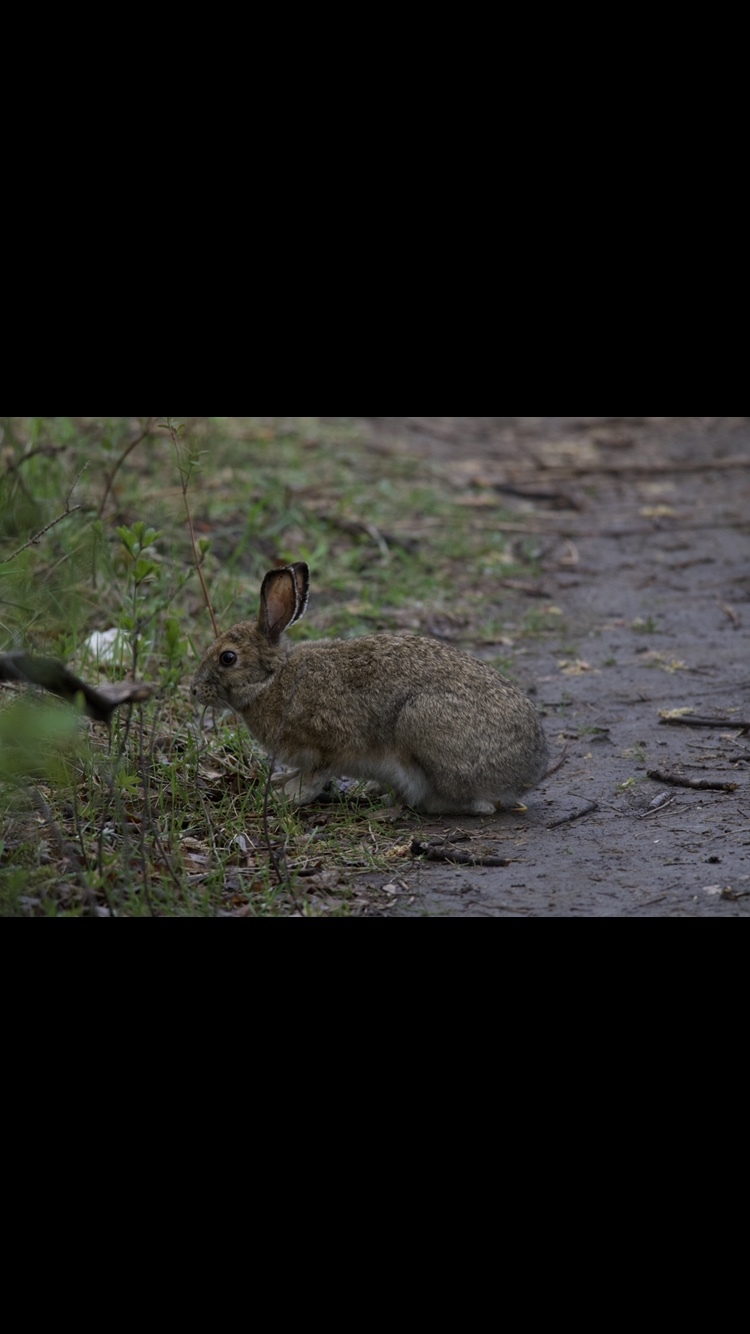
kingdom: Animalia
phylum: Chordata
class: Mammalia
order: Lagomorpha
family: Leporidae
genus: Lepus
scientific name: Lepus americanus
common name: Snowshoe hare
